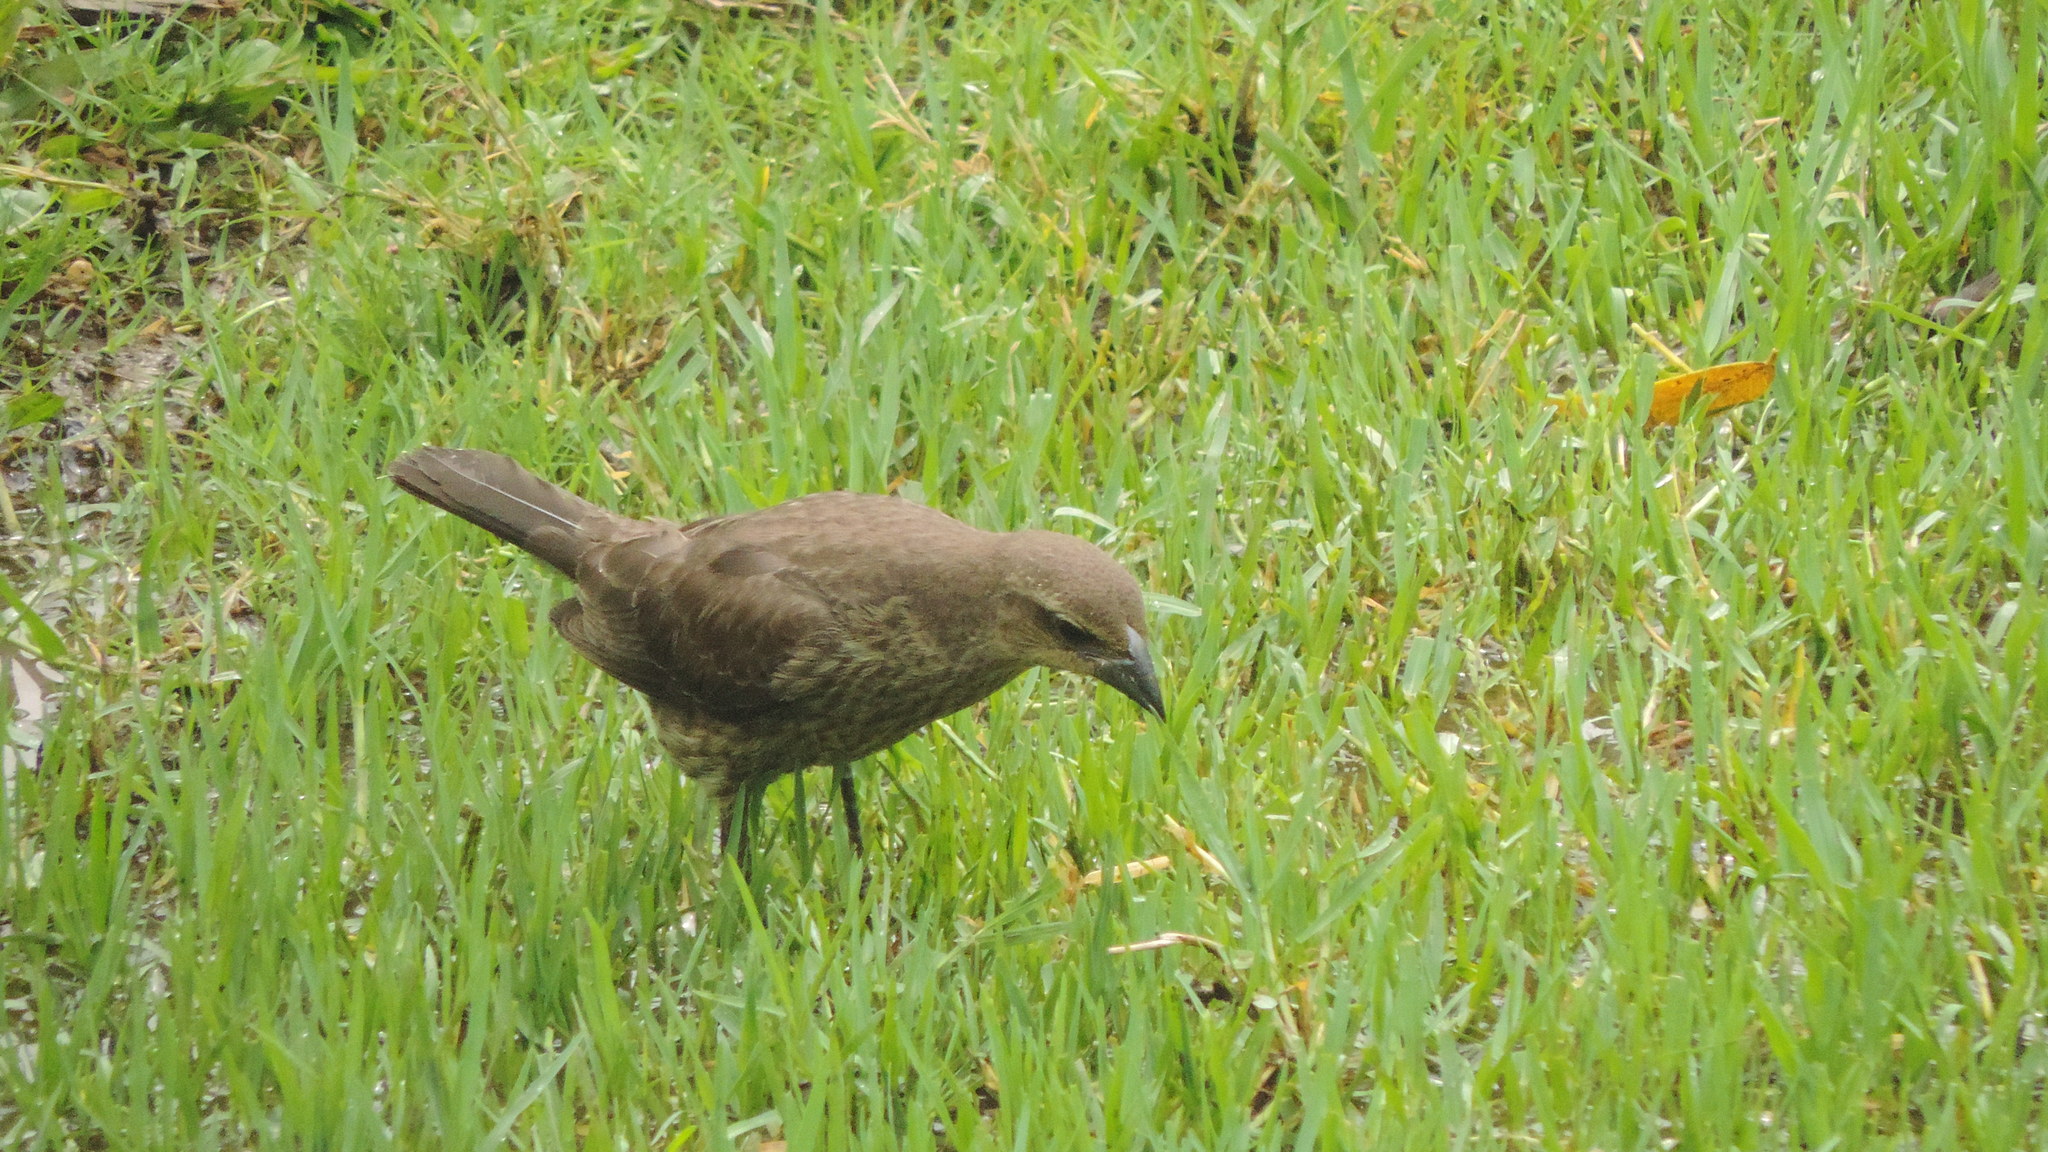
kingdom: Animalia
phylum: Chordata
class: Aves
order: Passeriformes
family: Icteridae
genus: Molothrus
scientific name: Molothrus bonariensis
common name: Shiny cowbird
